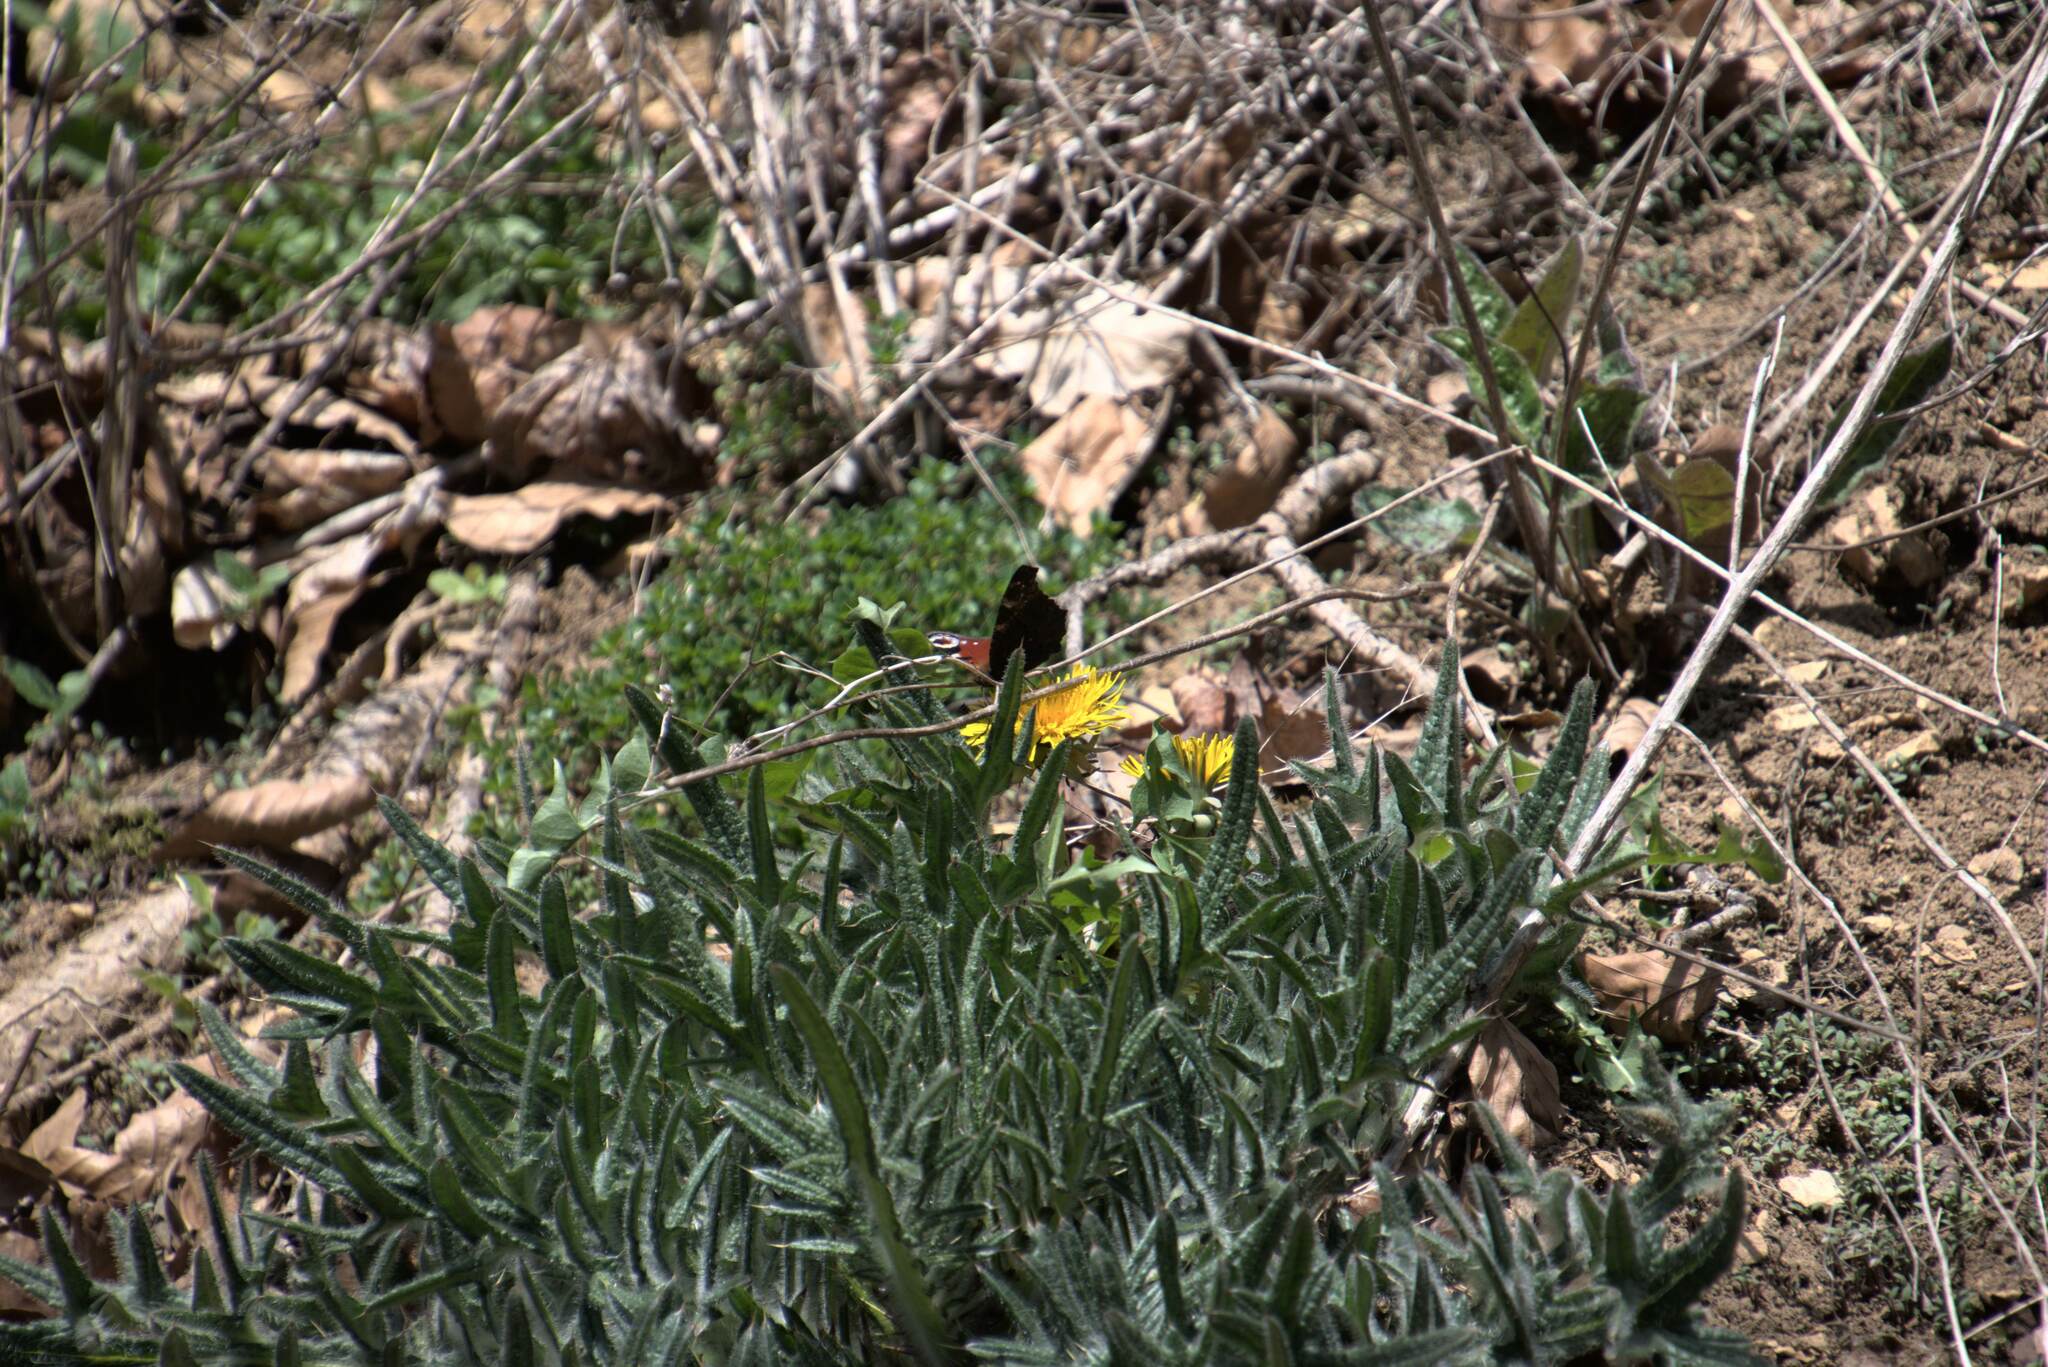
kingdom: Animalia
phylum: Arthropoda
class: Insecta
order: Lepidoptera
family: Nymphalidae
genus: Aglais
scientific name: Aglais io
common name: Peacock
